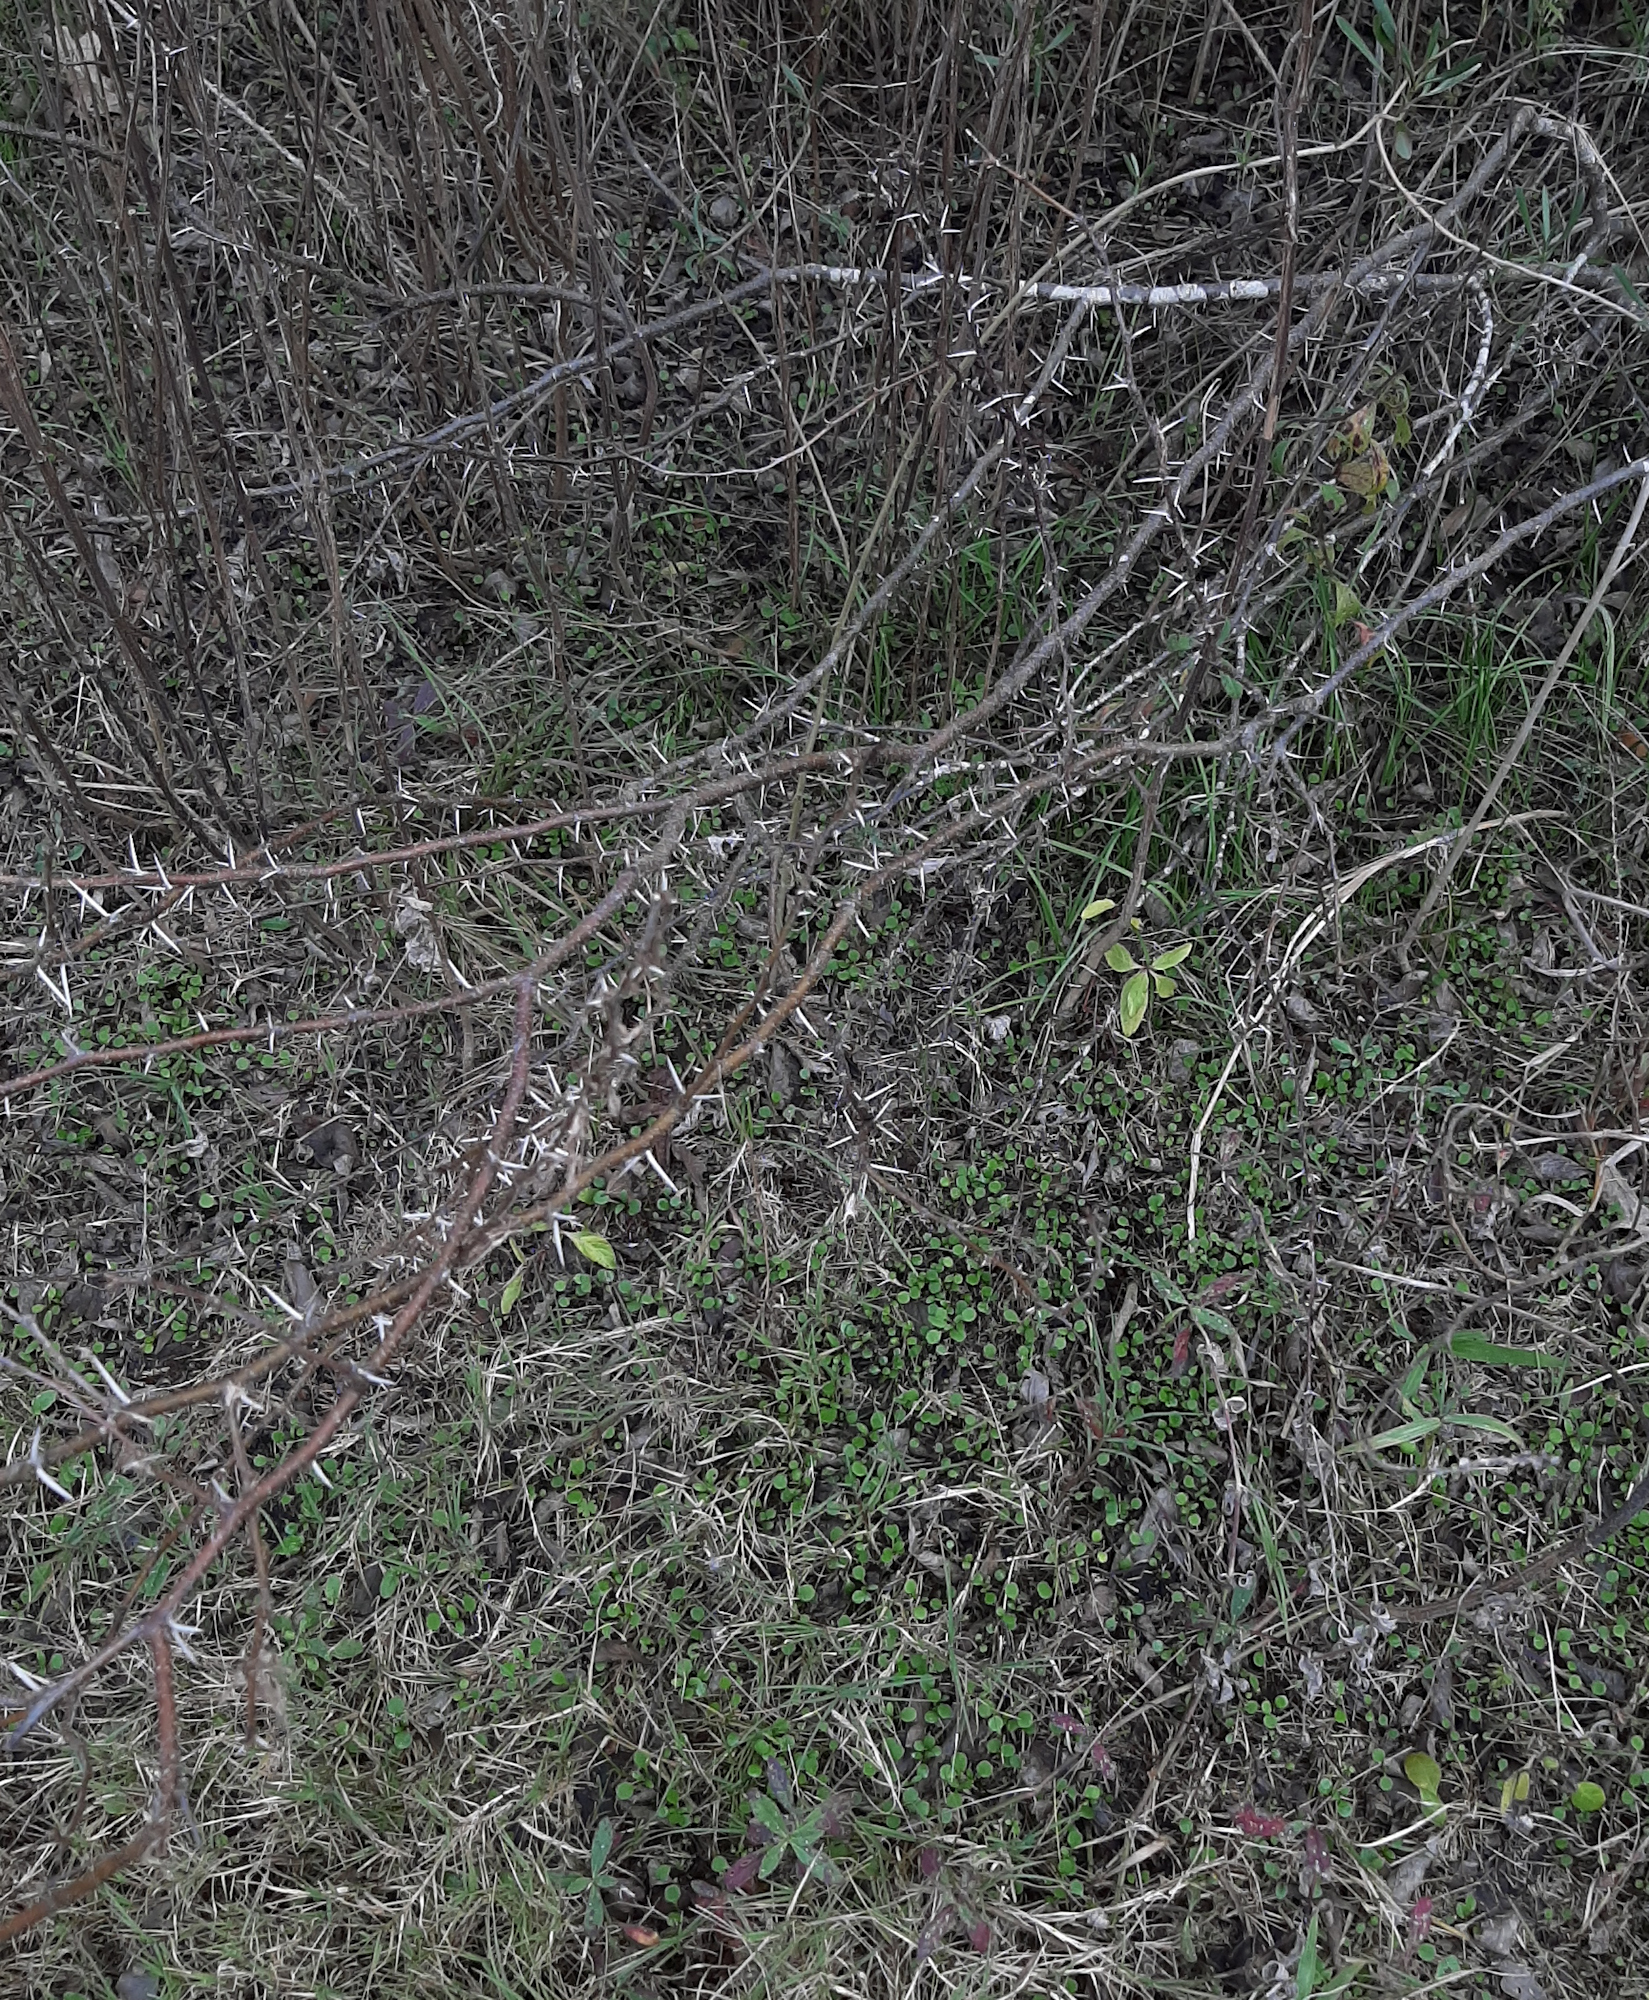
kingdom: Plantae
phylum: Tracheophyta
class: Magnoliopsida
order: Fabales
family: Fabaceae
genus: Vachellia
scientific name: Vachellia farnesiana
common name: Sweet acacia
